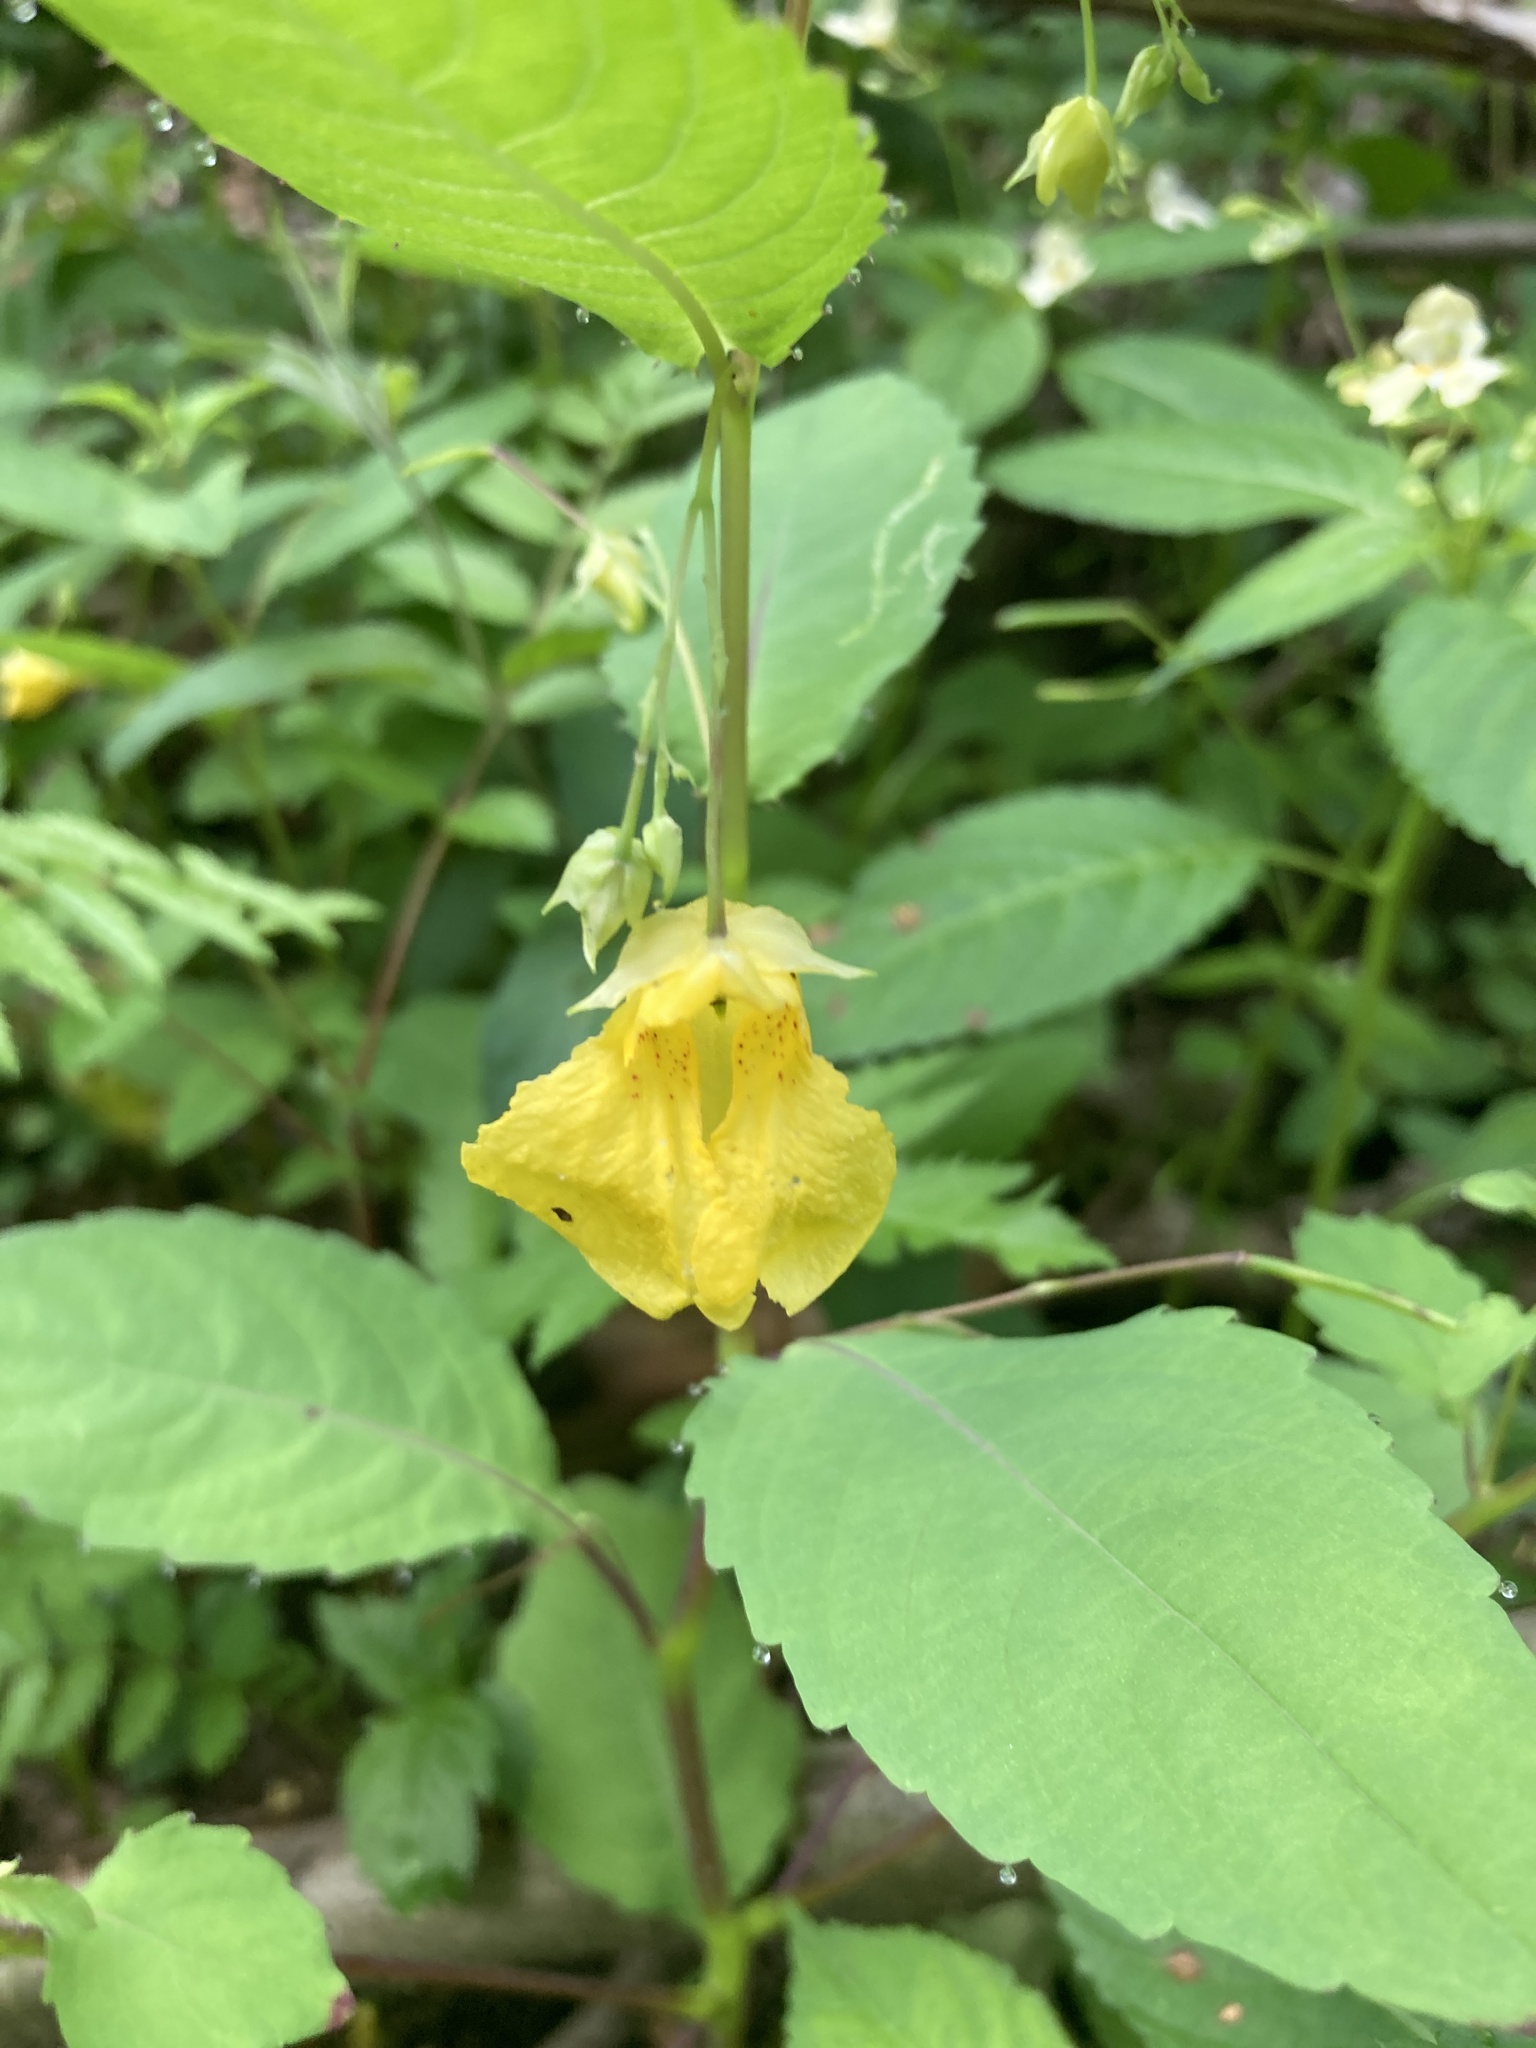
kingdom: Plantae
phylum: Tracheophyta
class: Magnoliopsida
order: Ericales
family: Balsaminaceae
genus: Impatiens
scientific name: Impatiens noli-tangere
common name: Touch-me-not balsam
